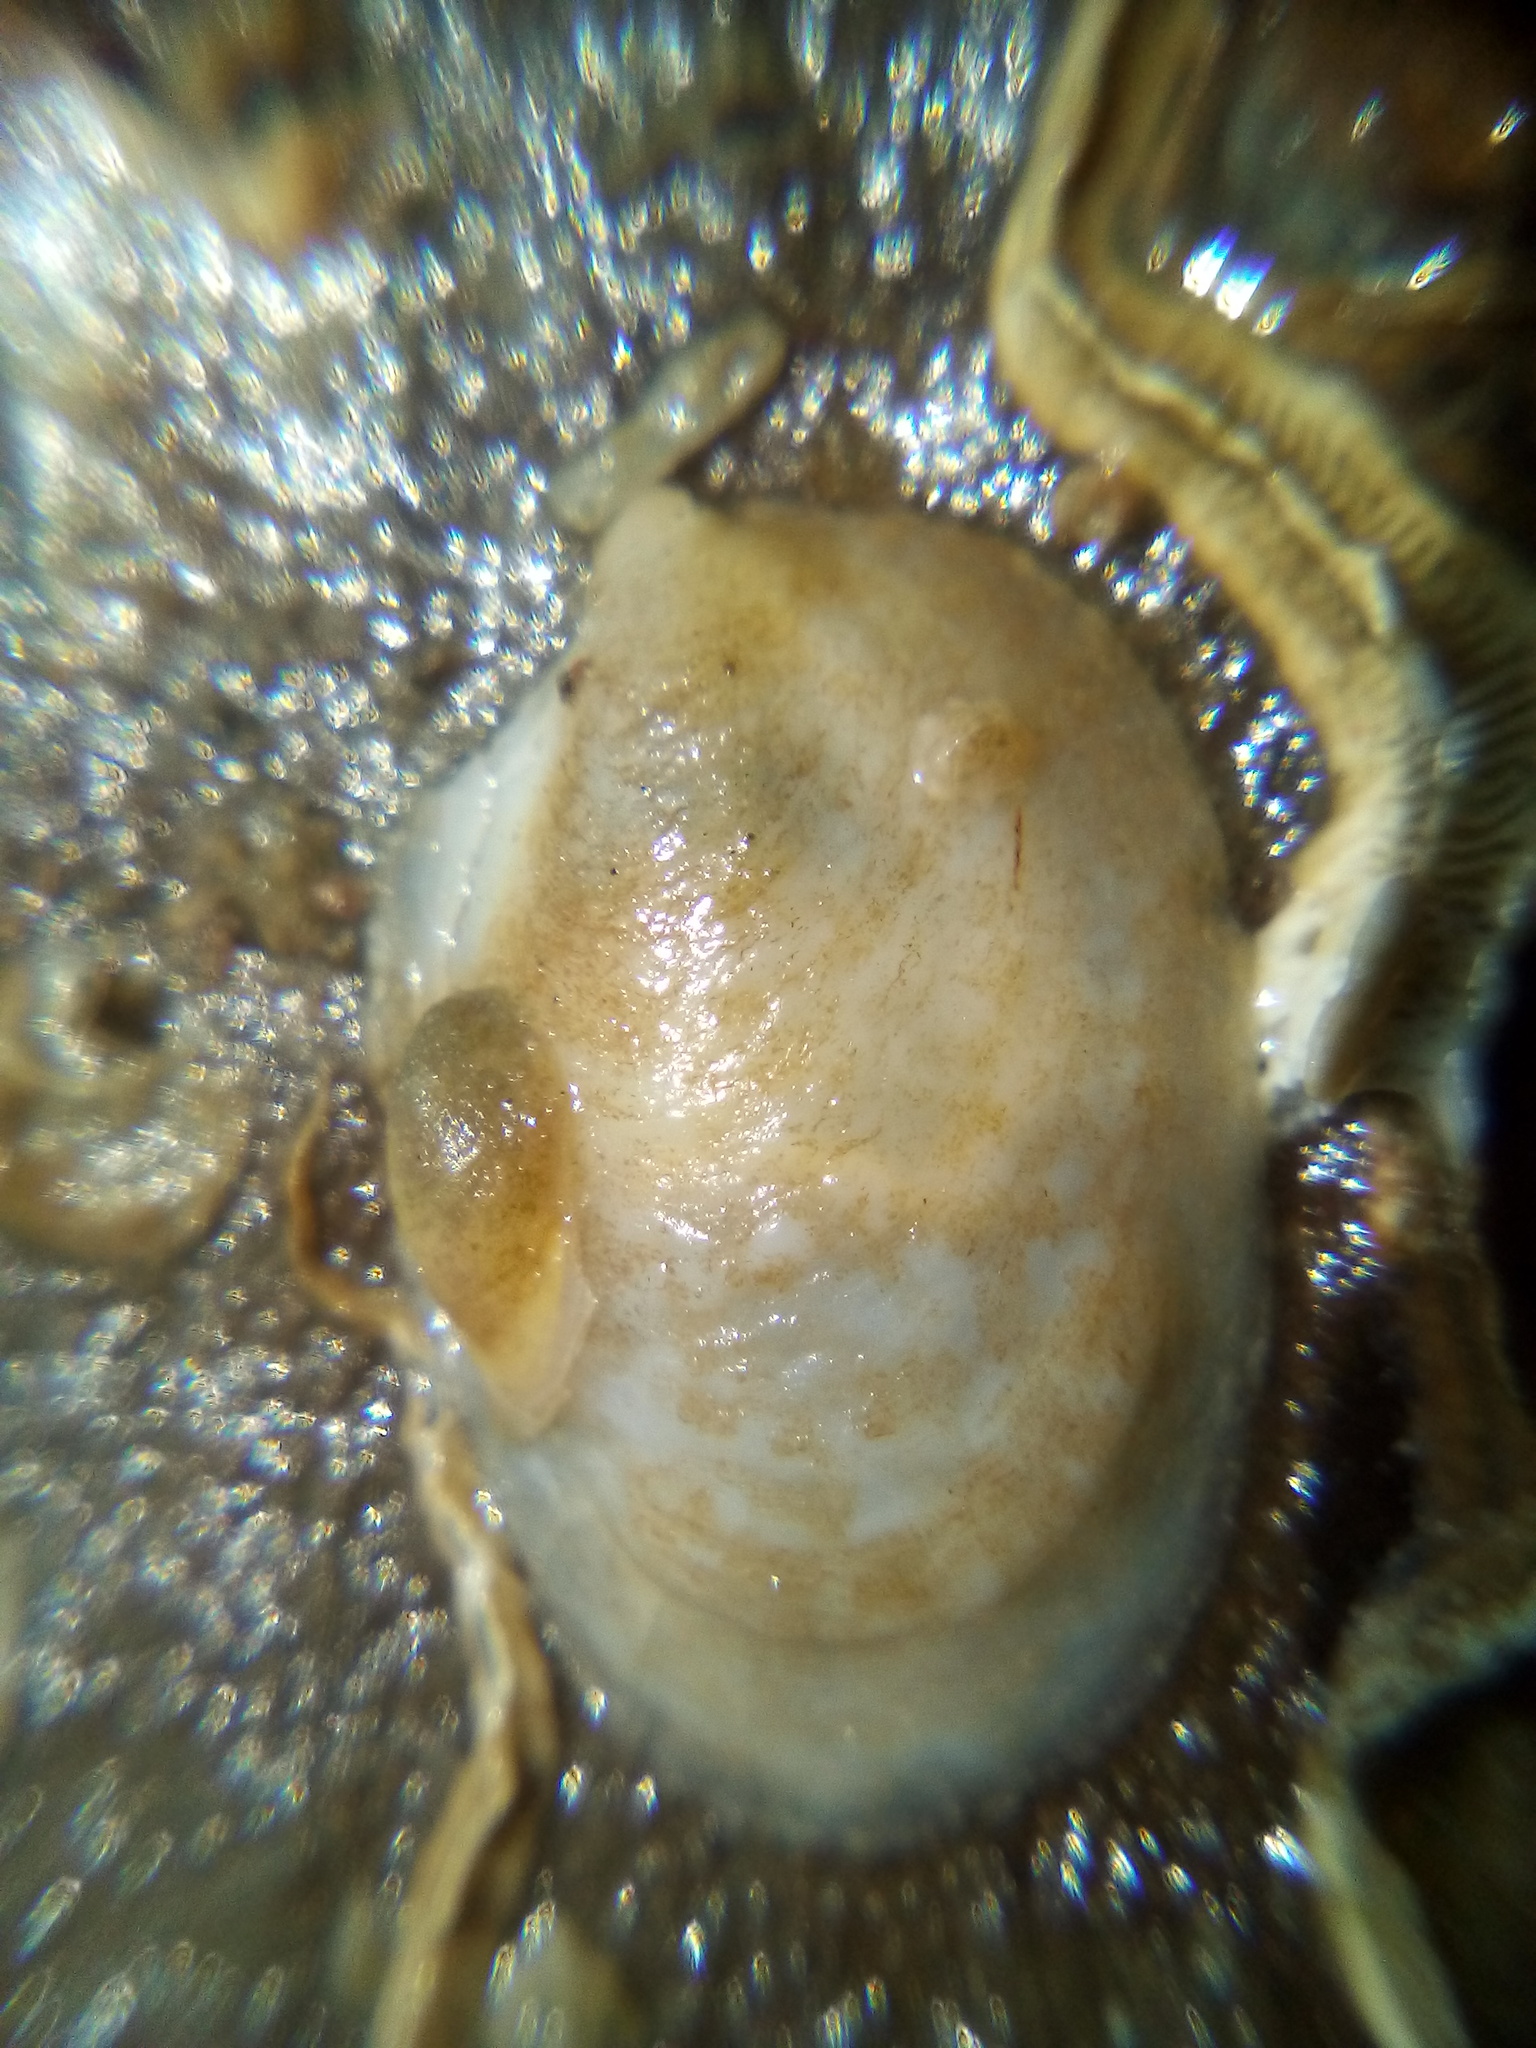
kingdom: Animalia
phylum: Mollusca
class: Gastropoda
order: Littorinimorpha
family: Calyptraeidae
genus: Maoricrypta
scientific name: Maoricrypta monoxyla
